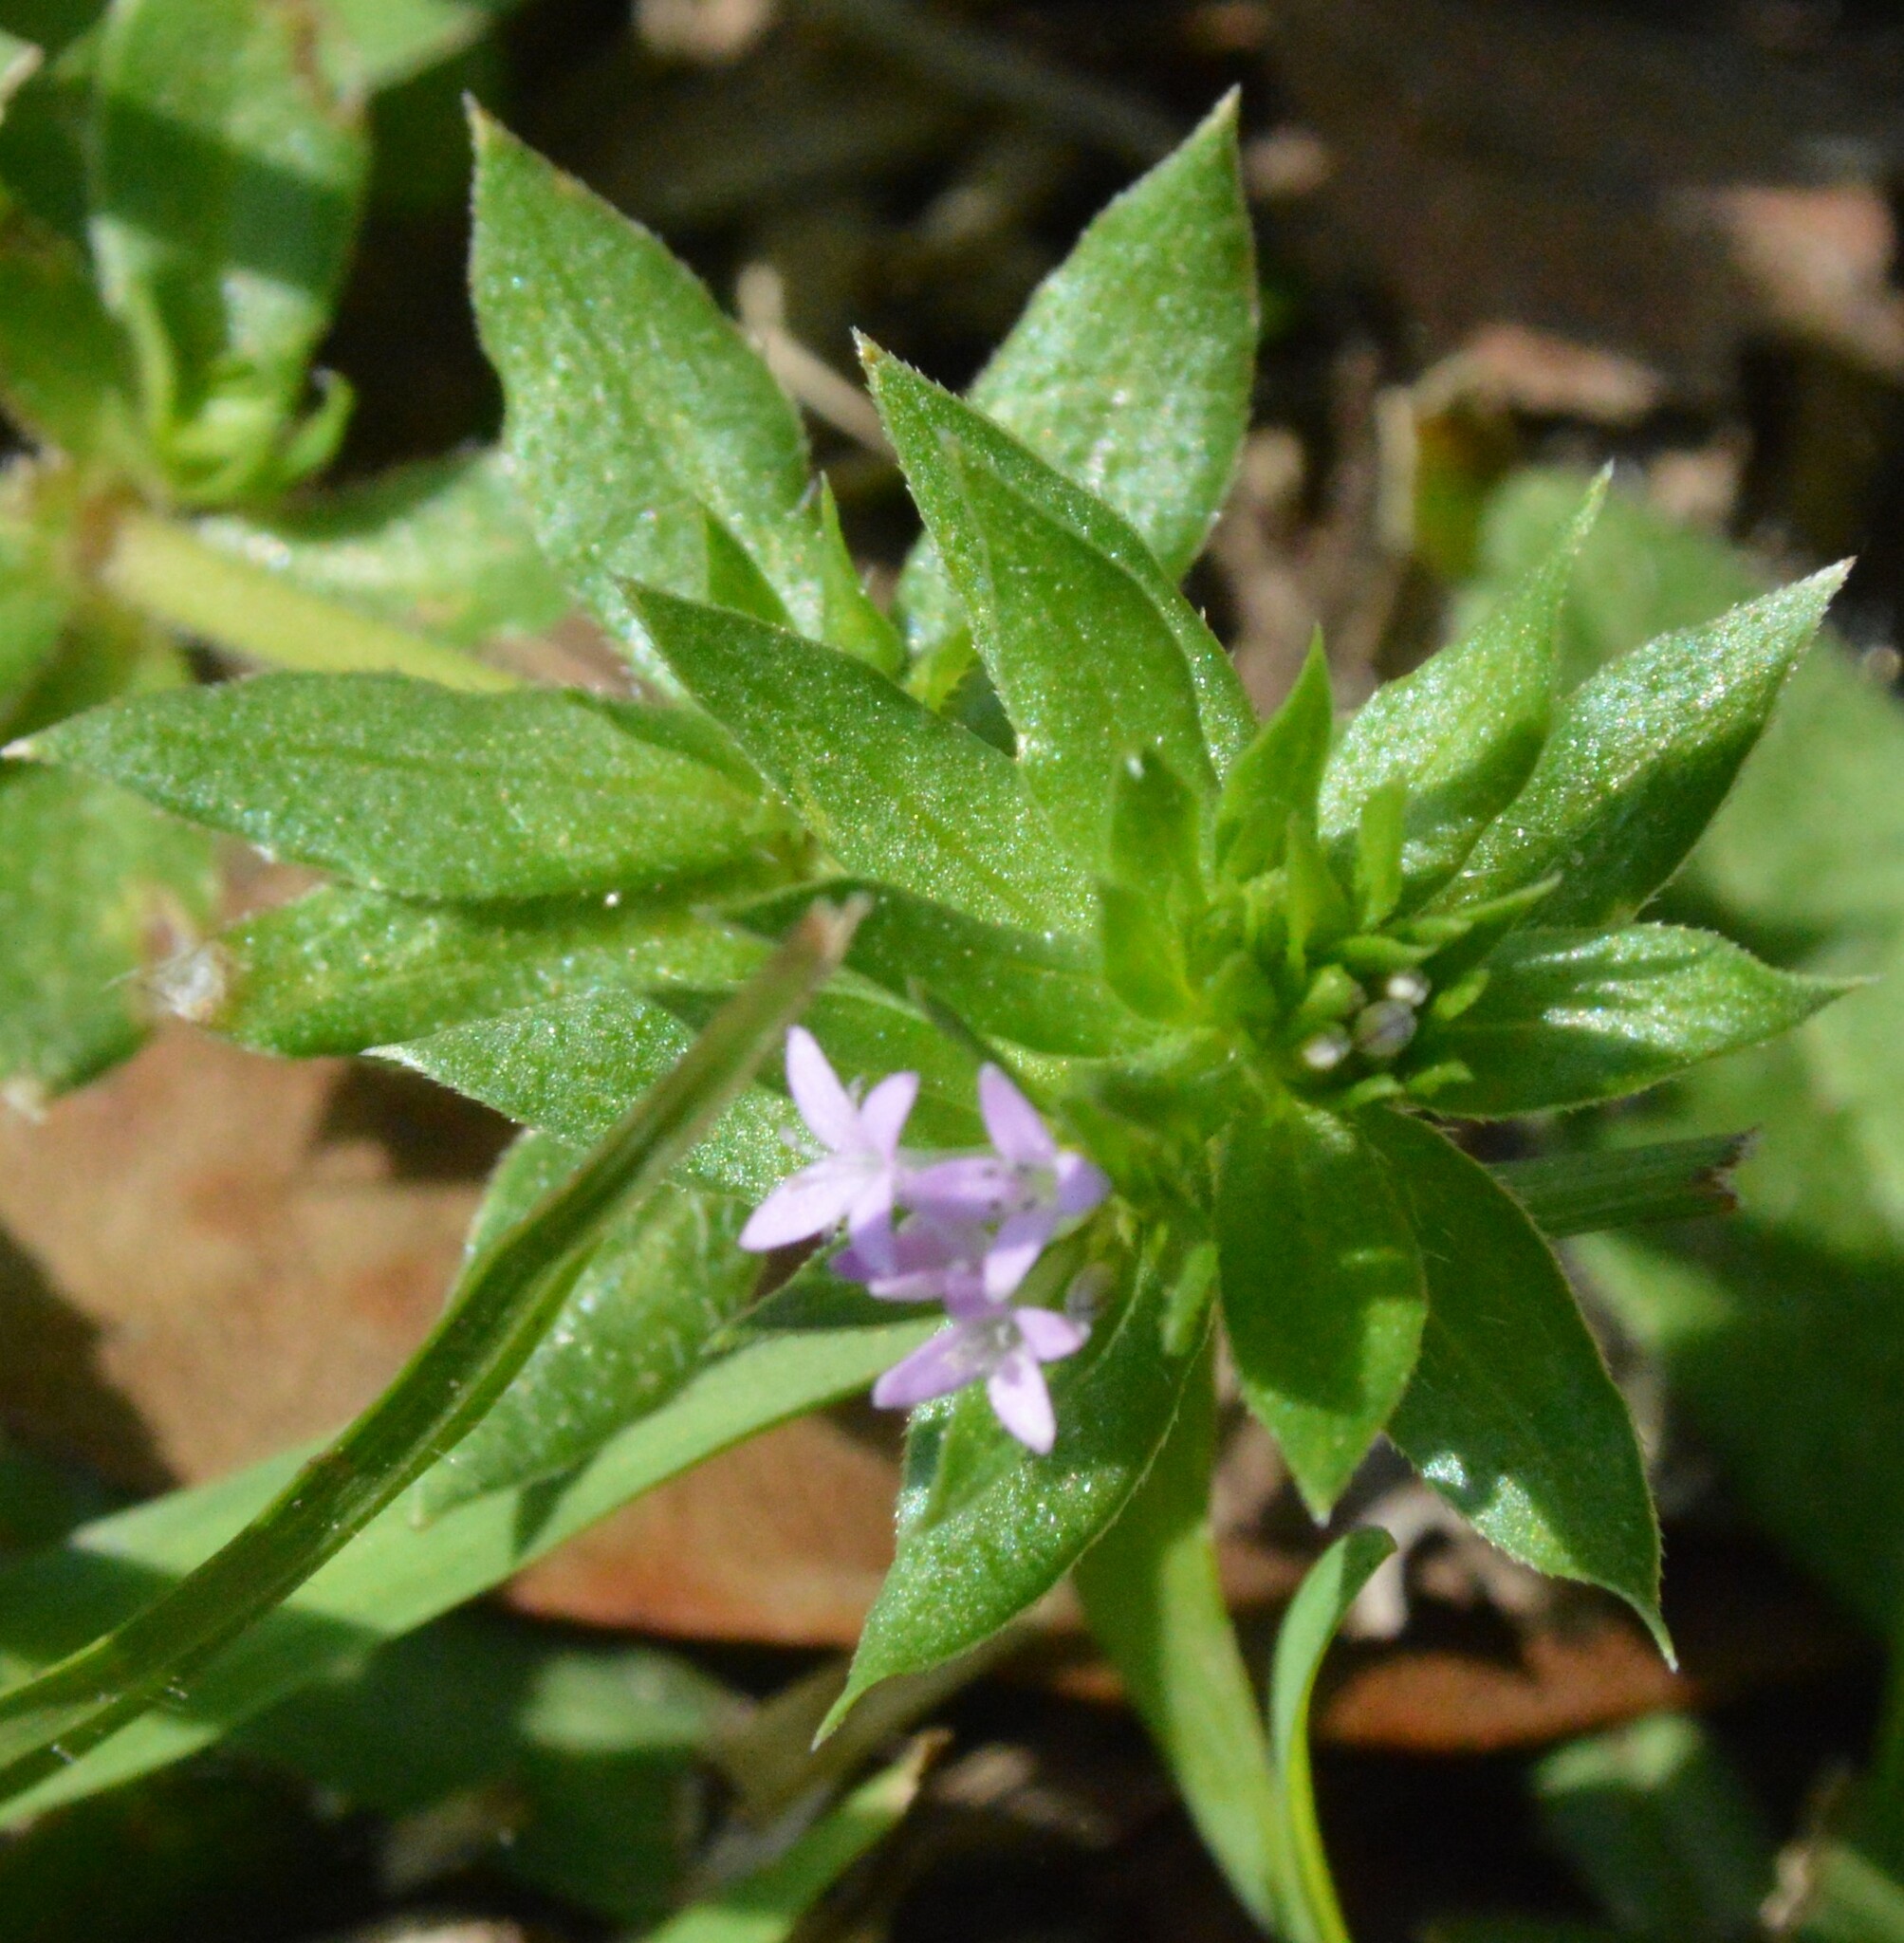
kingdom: Plantae
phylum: Tracheophyta
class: Magnoliopsida
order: Gentianales
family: Rubiaceae
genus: Sherardia
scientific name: Sherardia arvensis
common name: Field madder
